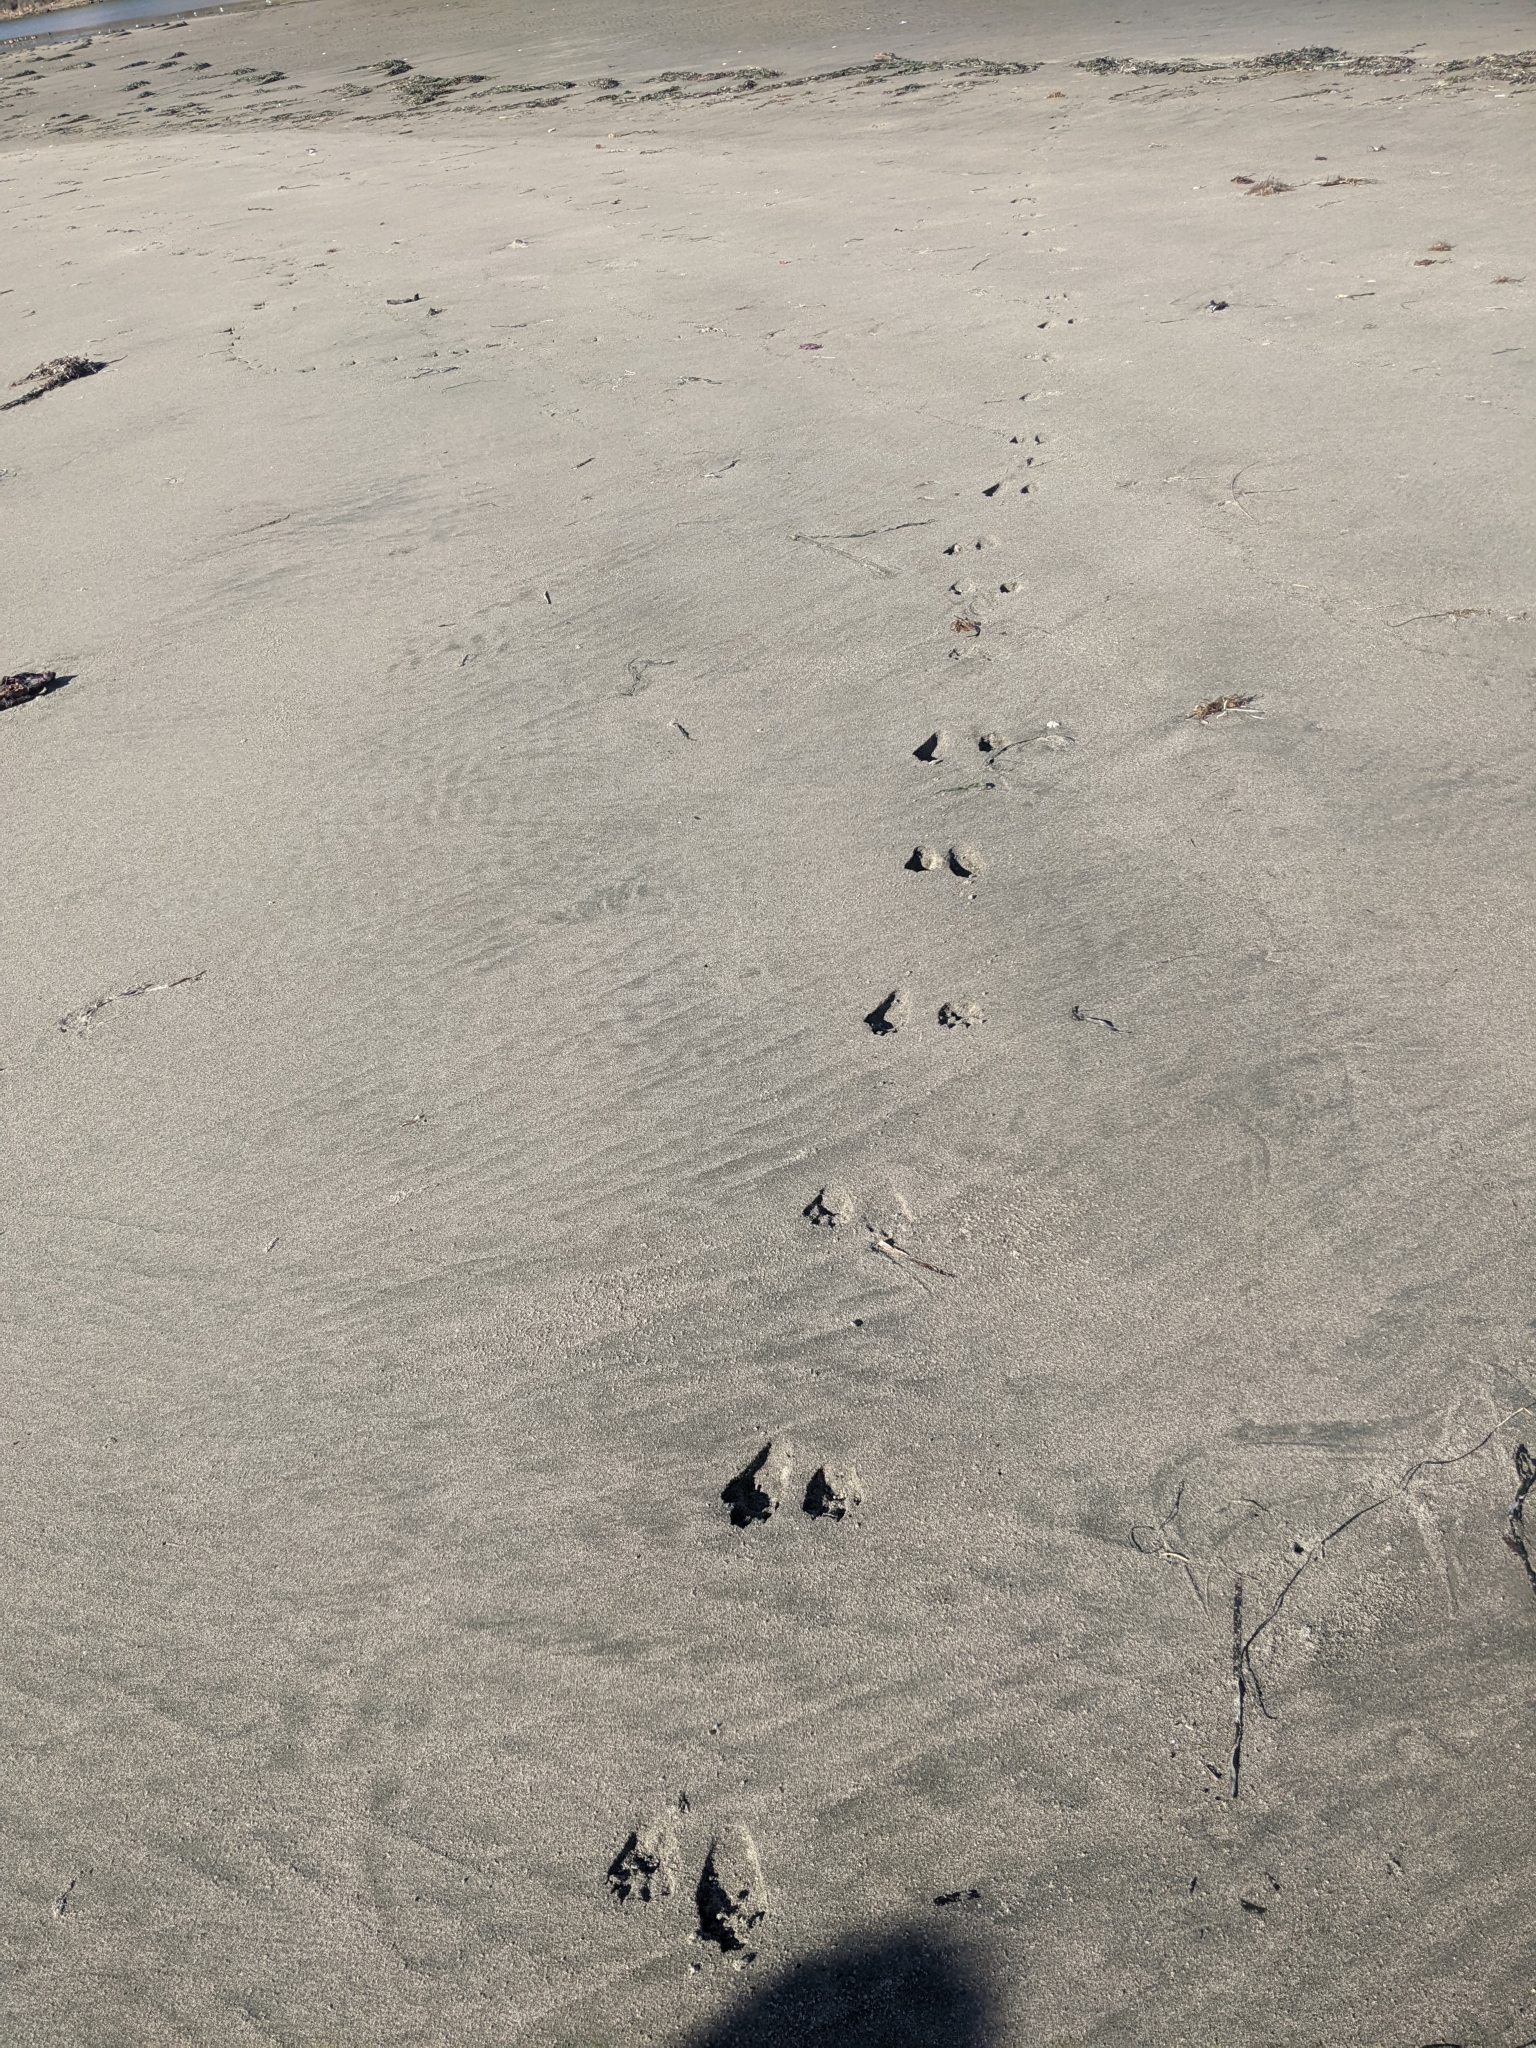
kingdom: Animalia
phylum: Chordata
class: Mammalia
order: Carnivora
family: Procyonidae
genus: Procyon
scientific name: Procyon lotor
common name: Raccoon
